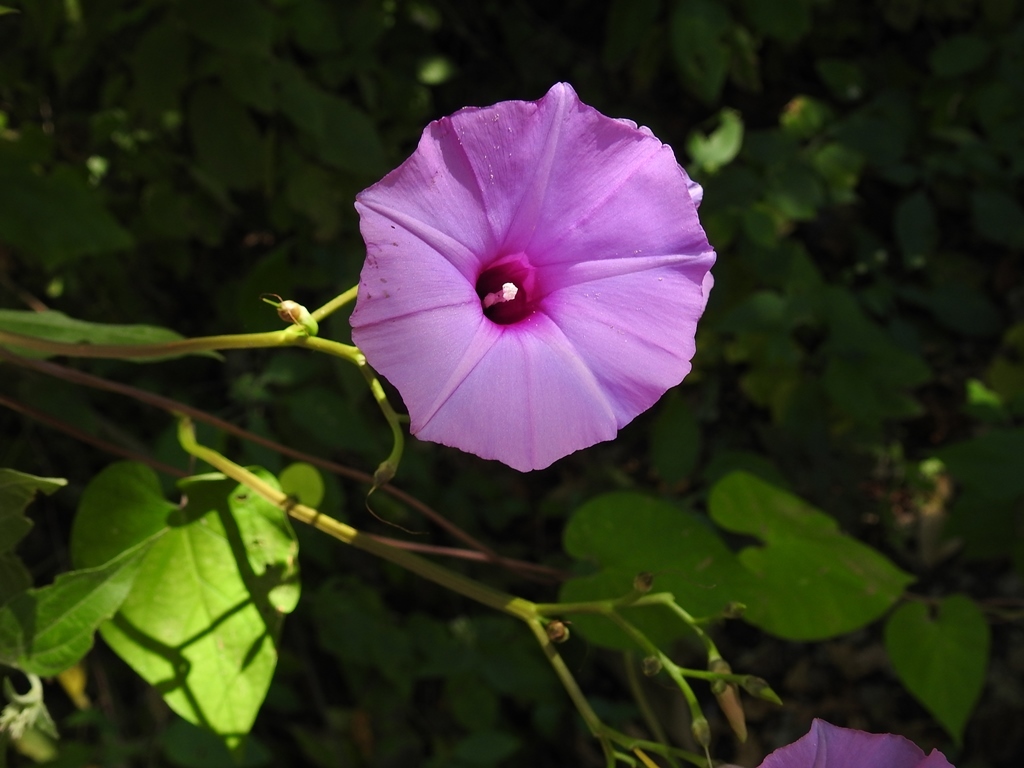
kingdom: Plantae
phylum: Tracheophyta
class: Magnoliopsida
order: Solanales
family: Convolvulaceae
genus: Ipomoea
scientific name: Ipomoea splendor-sylvae
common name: Morning glory
